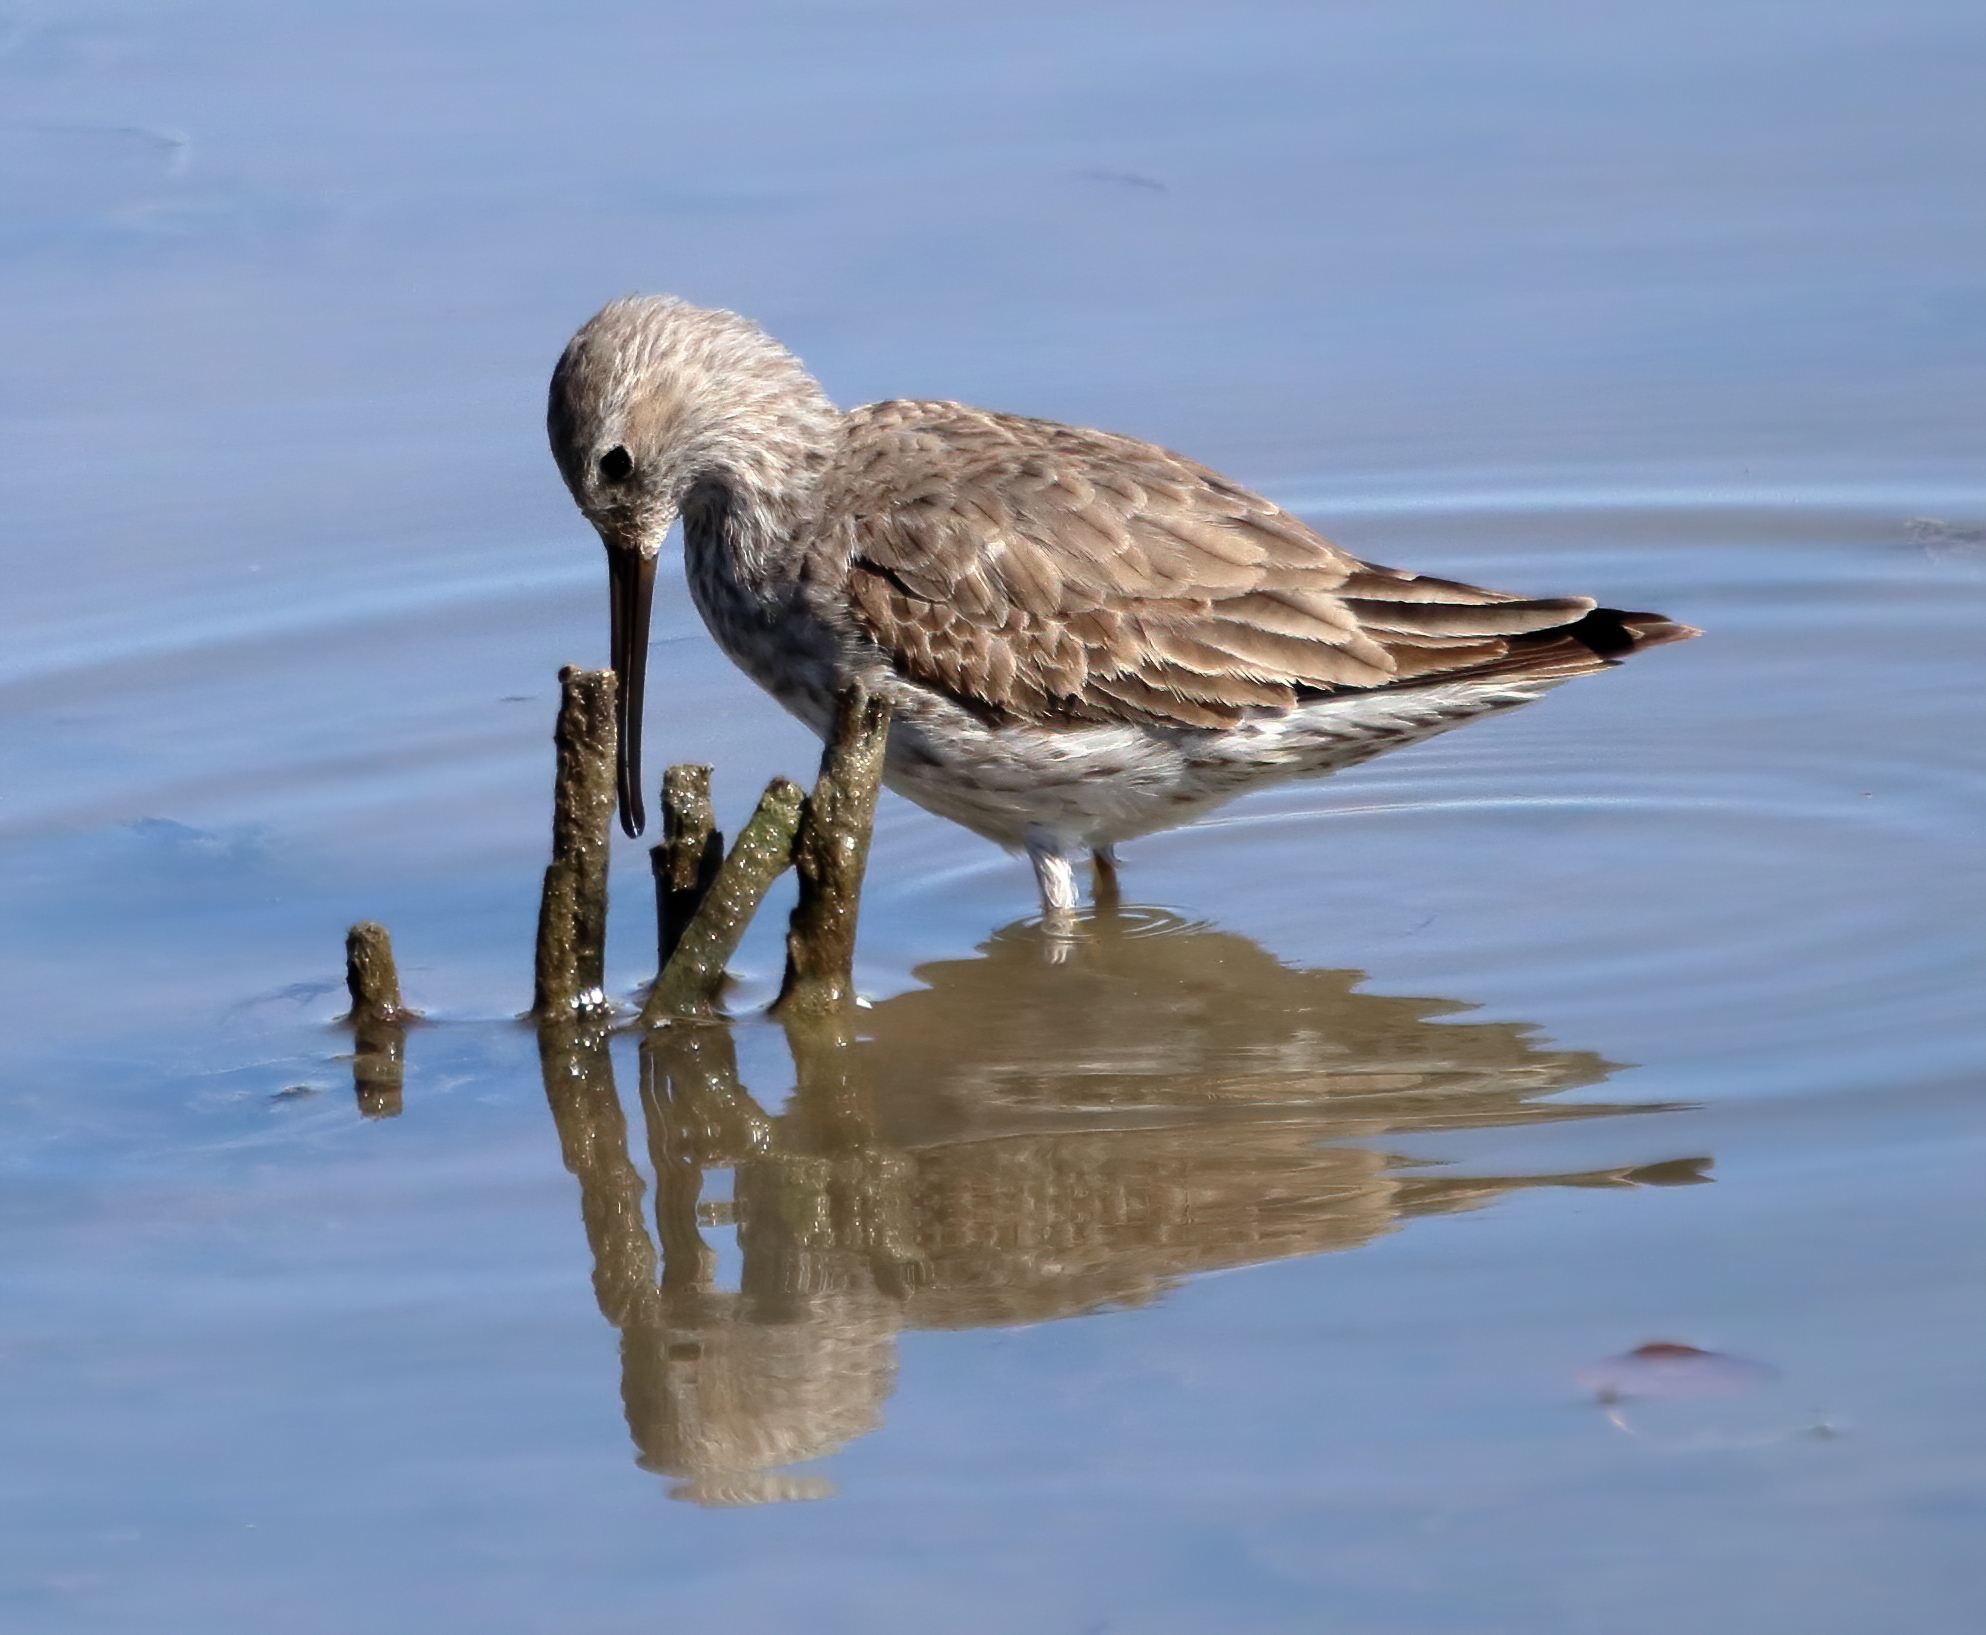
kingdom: Animalia
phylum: Chordata
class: Aves
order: Charadriiformes
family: Scolopacidae
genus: Calidris
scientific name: Calidris himantopus
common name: Stilt sandpiper
